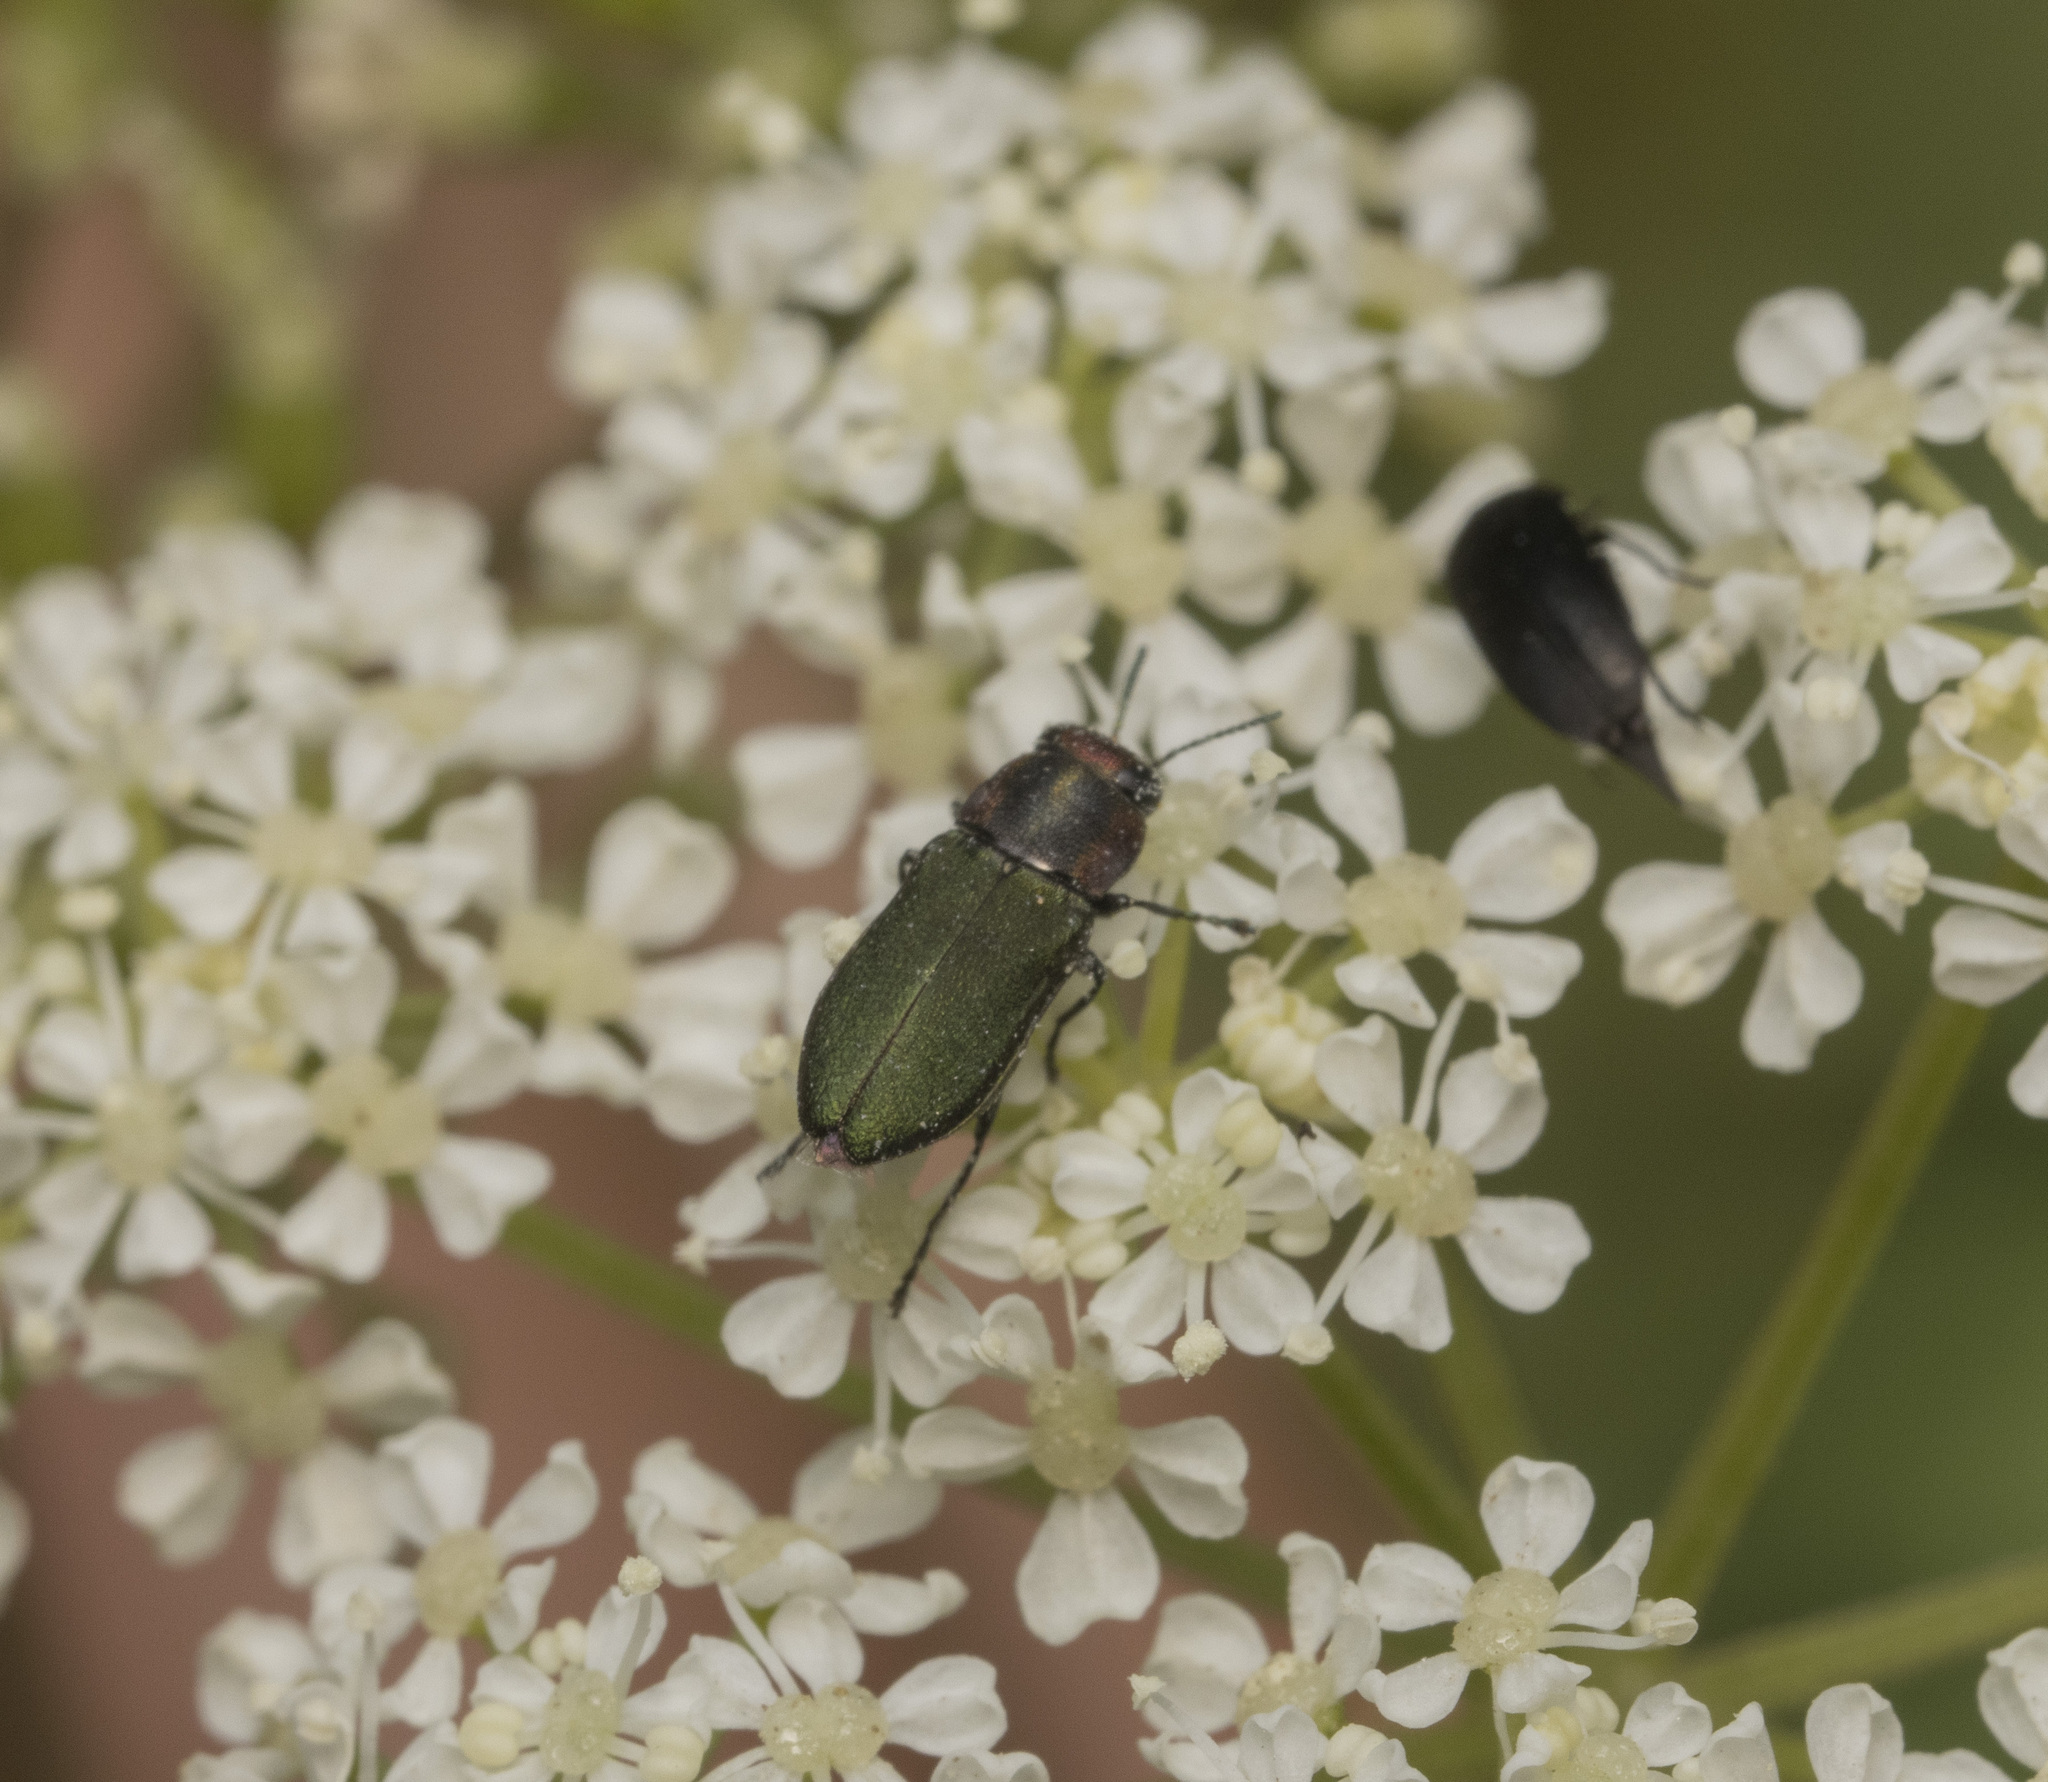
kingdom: Animalia
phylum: Arthropoda
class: Insecta
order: Coleoptera
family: Buprestidae
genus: Bilyaxia
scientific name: Bilyaxia cupriceps
